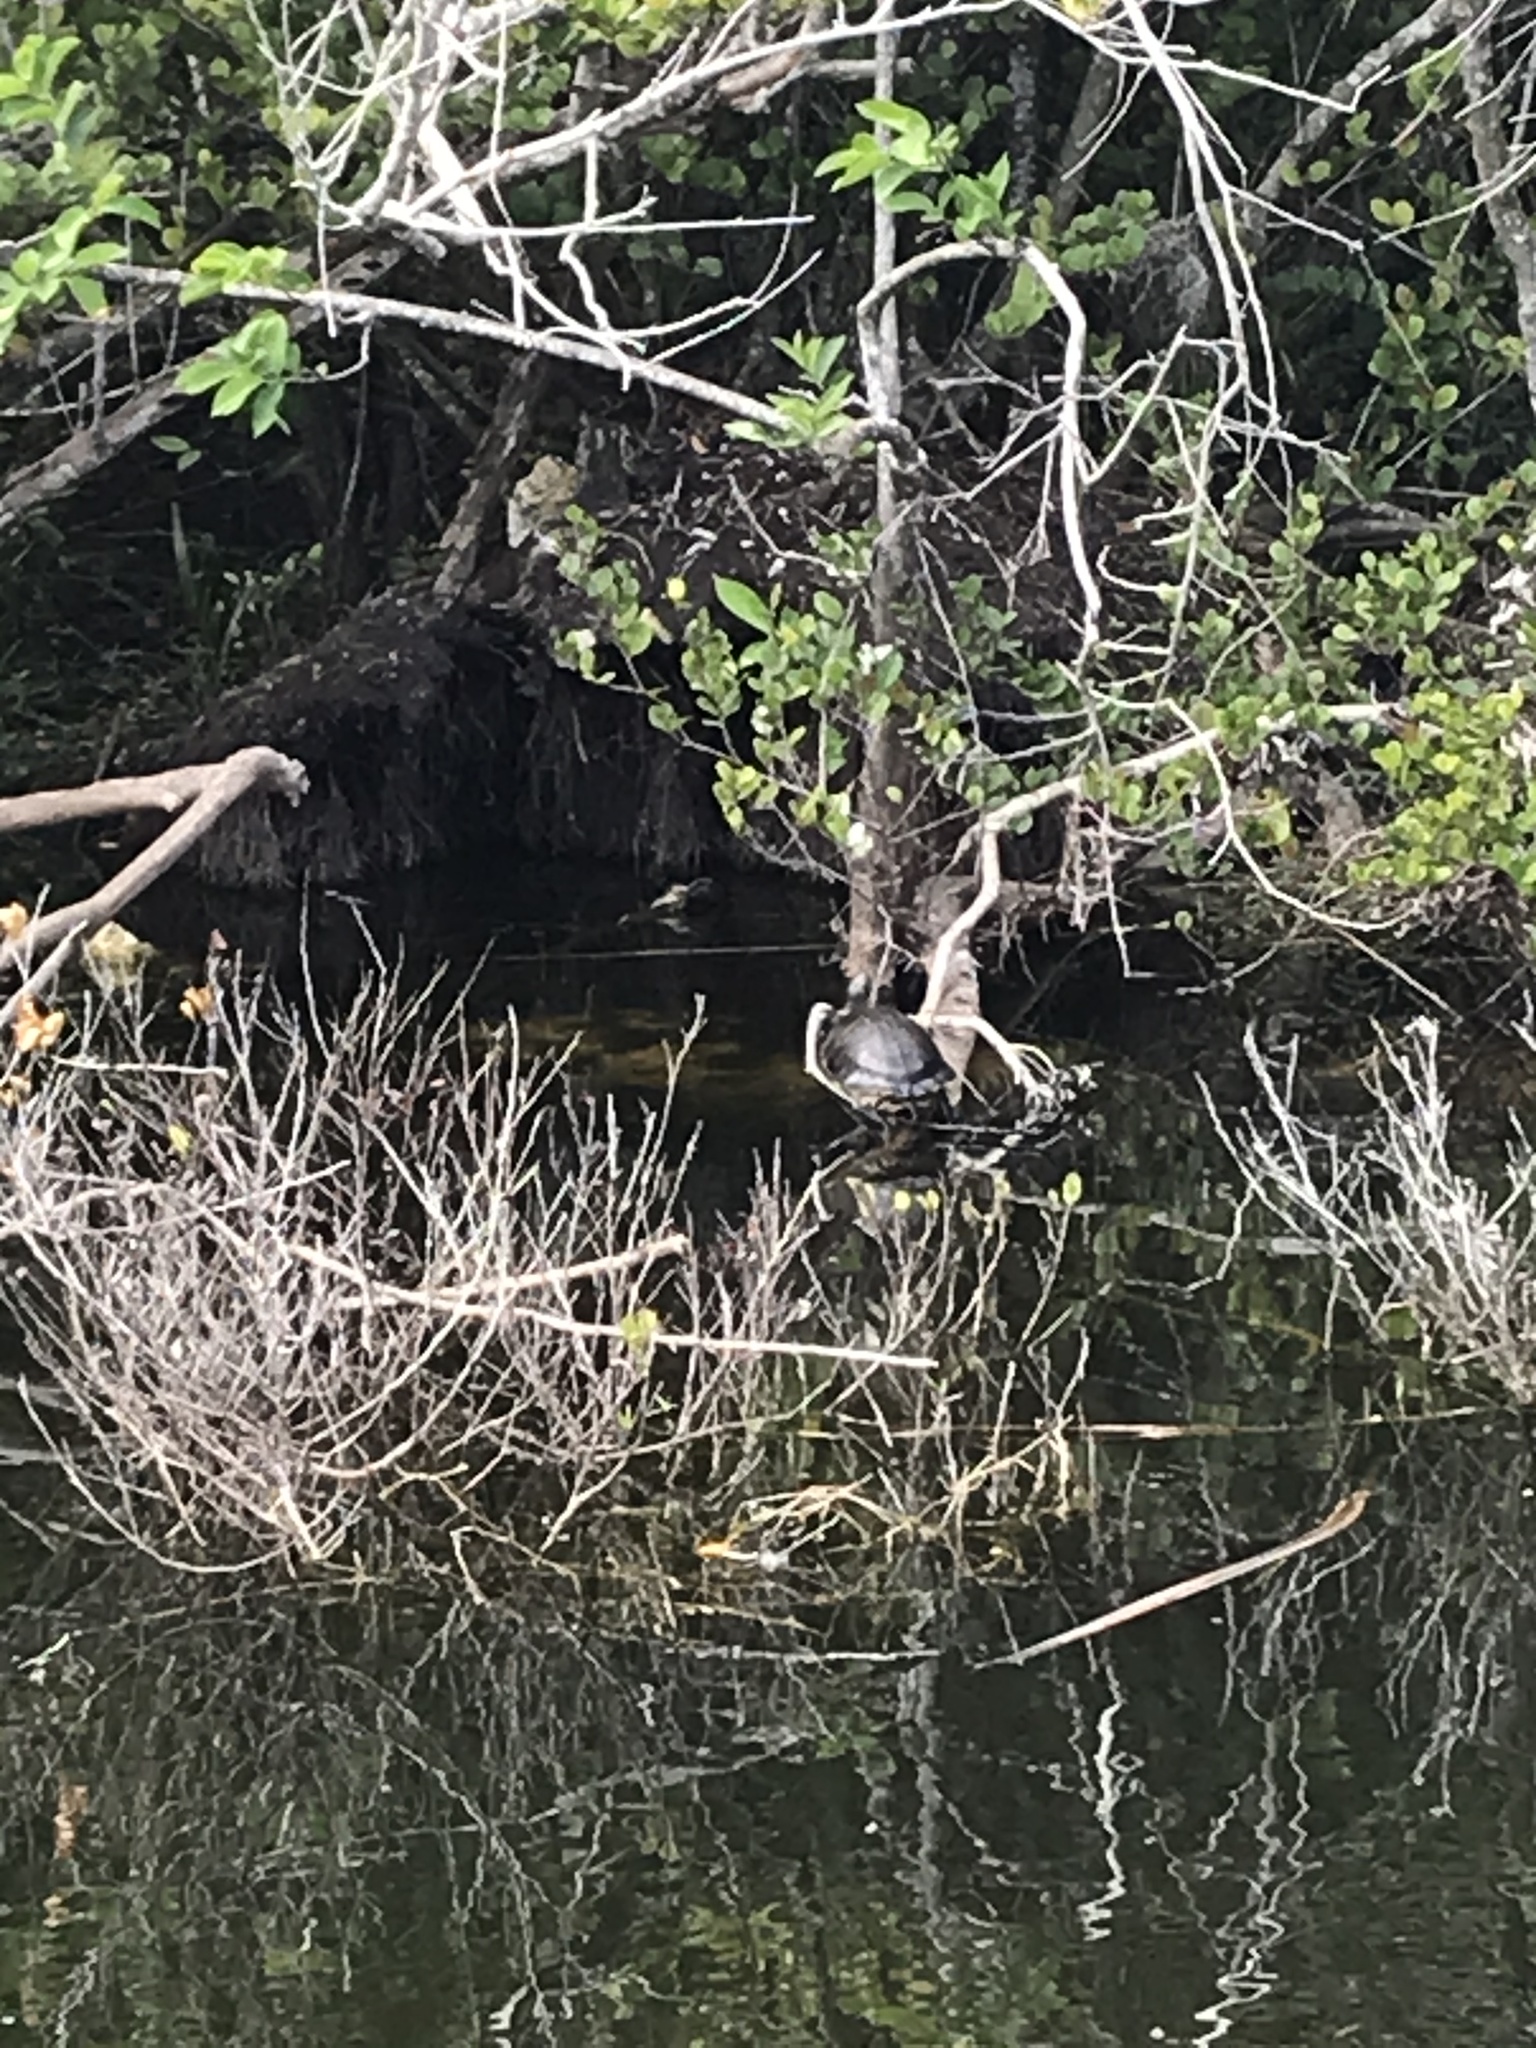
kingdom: Animalia
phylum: Chordata
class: Aves
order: Pelecaniformes
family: Ardeidae
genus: Nycticorax
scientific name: Nycticorax nycticorax
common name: Black-crowned night heron
